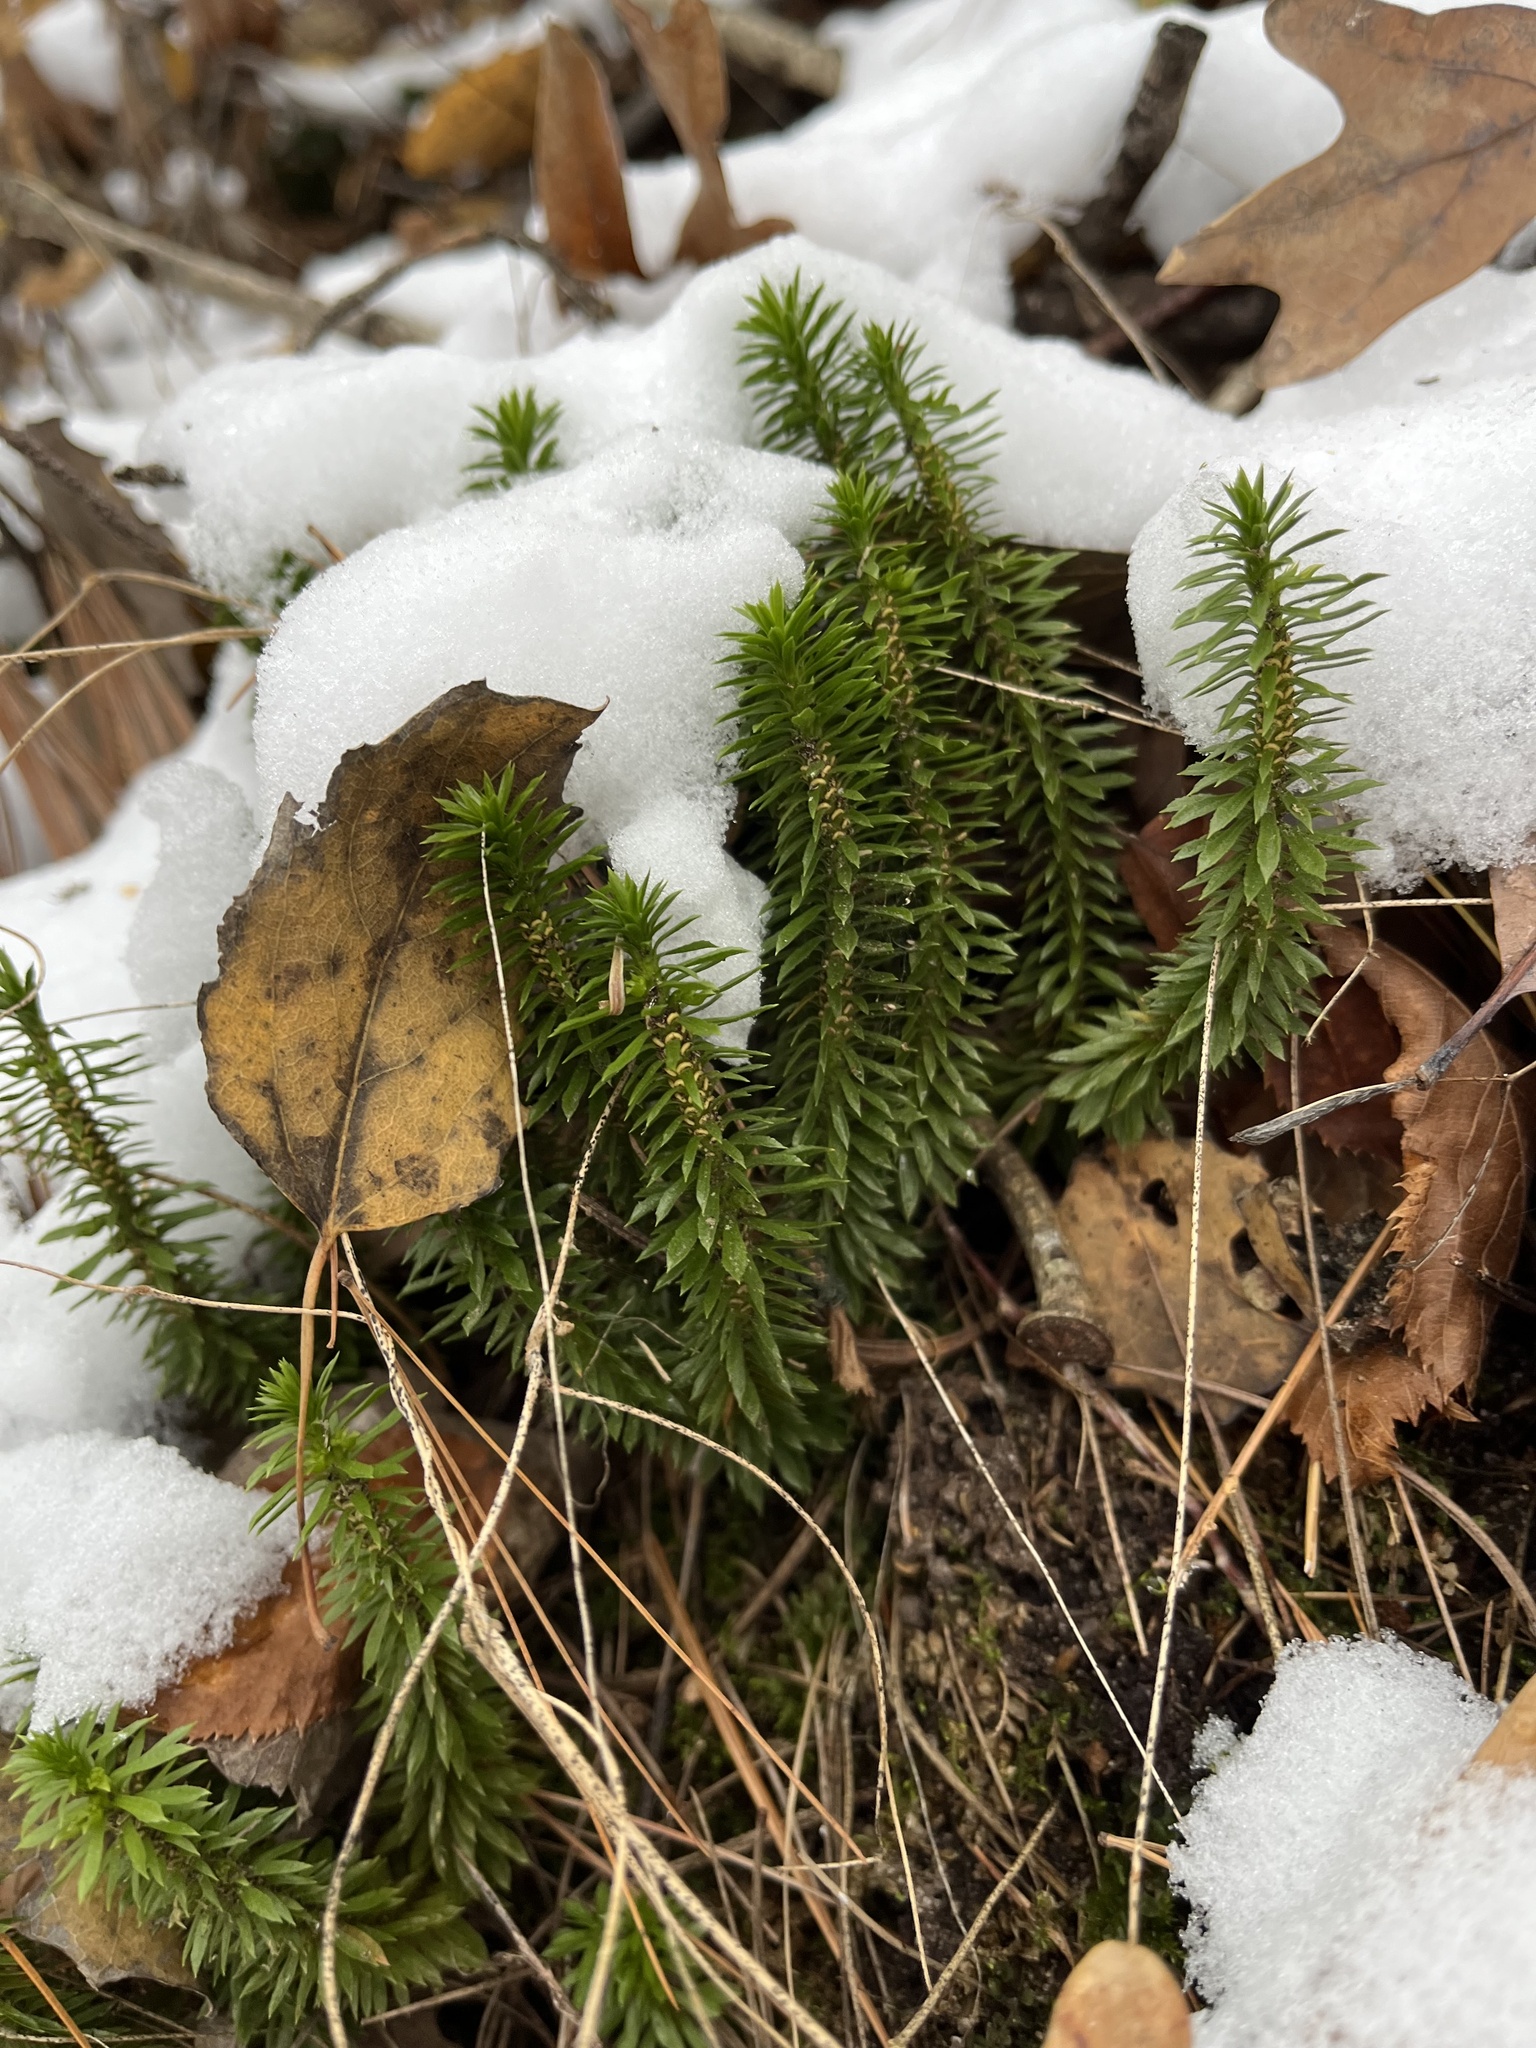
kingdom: Plantae
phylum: Tracheophyta
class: Lycopodiopsida
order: Lycopodiales
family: Lycopodiaceae
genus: Huperzia
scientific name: Huperzia lucidula
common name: Shining clubmoss
